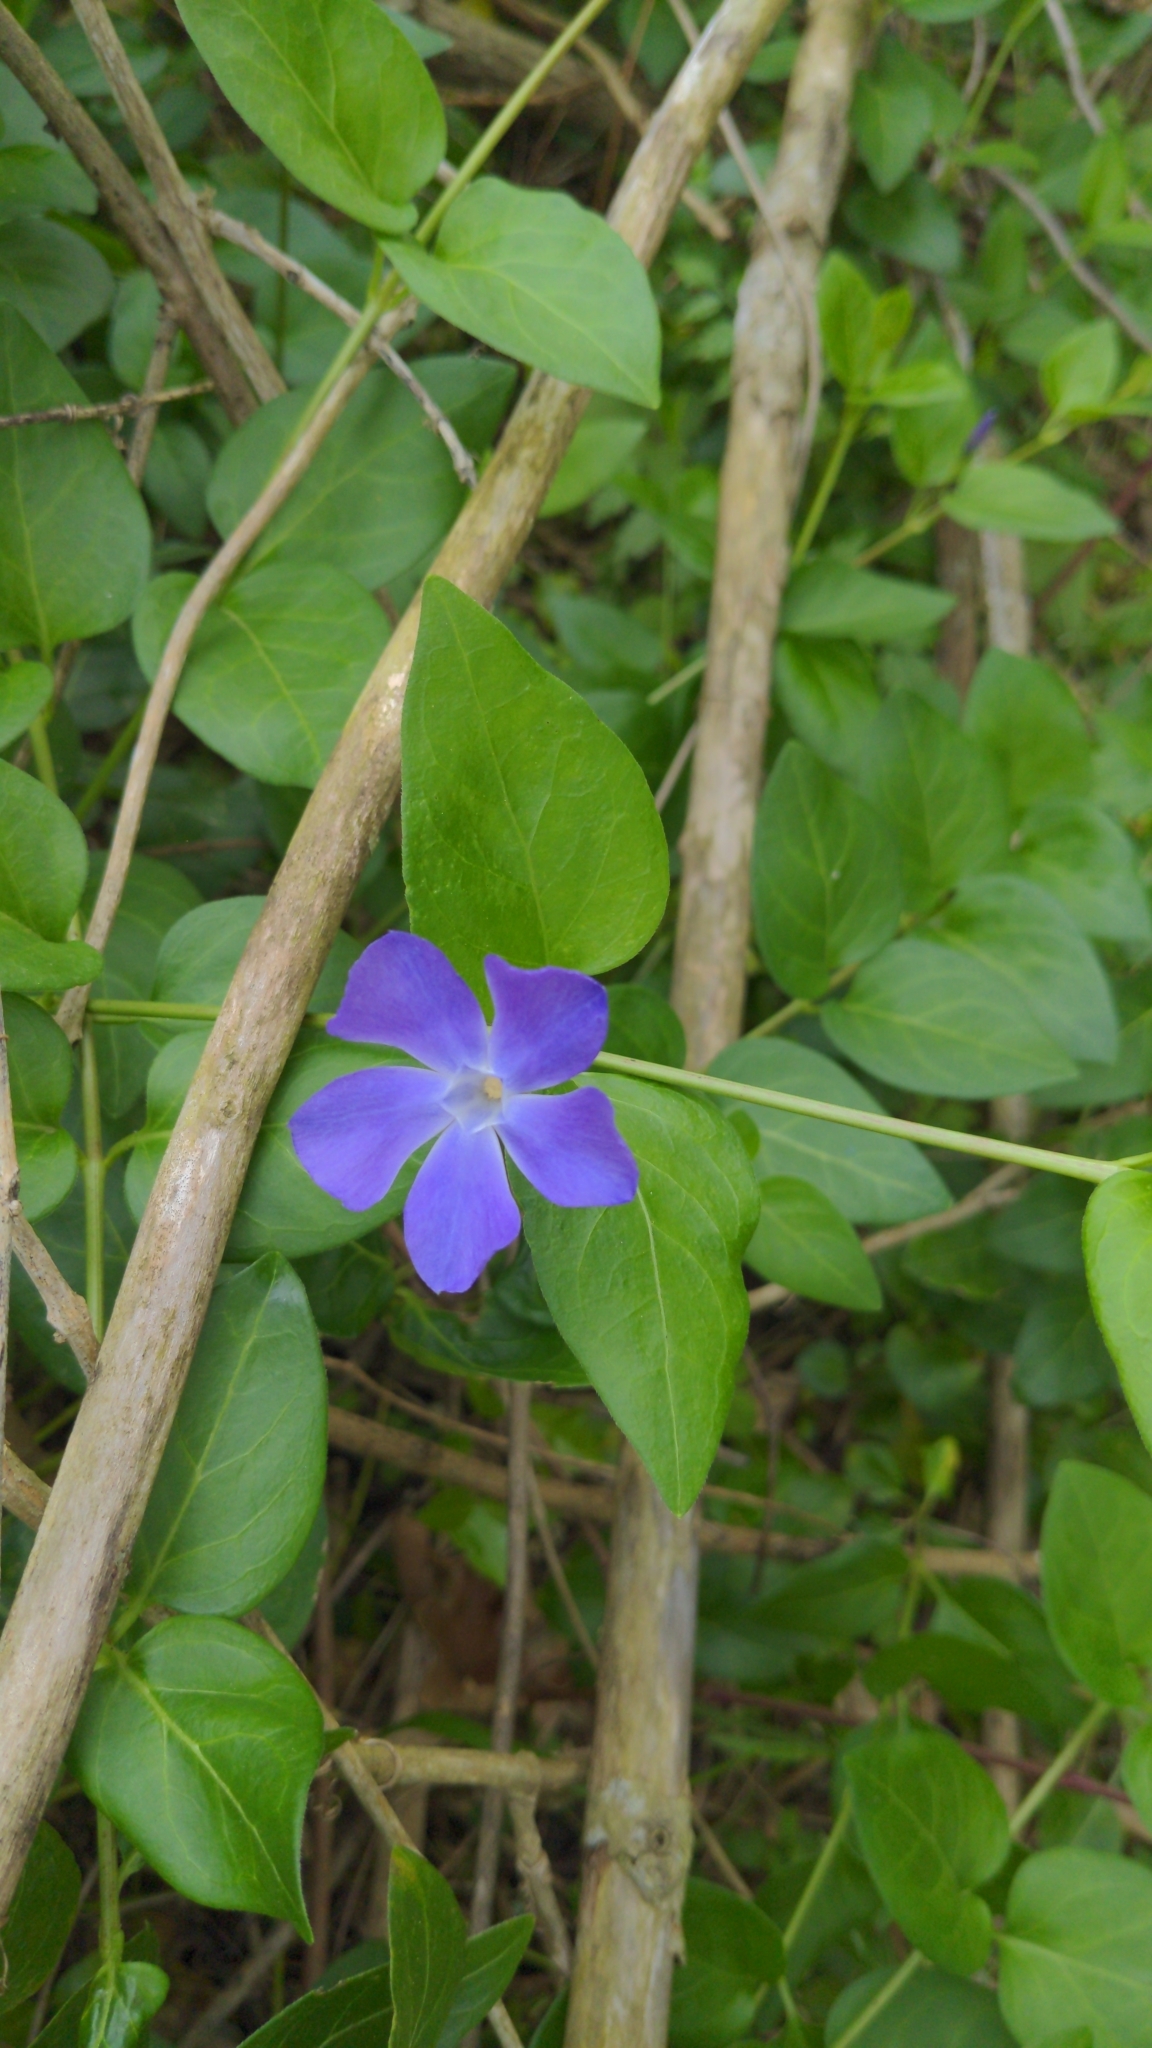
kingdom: Plantae
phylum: Tracheophyta
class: Magnoliopsida
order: Gentianales
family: Apocynaceae
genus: Vinca
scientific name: Vinca major
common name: Greater periwinkle
